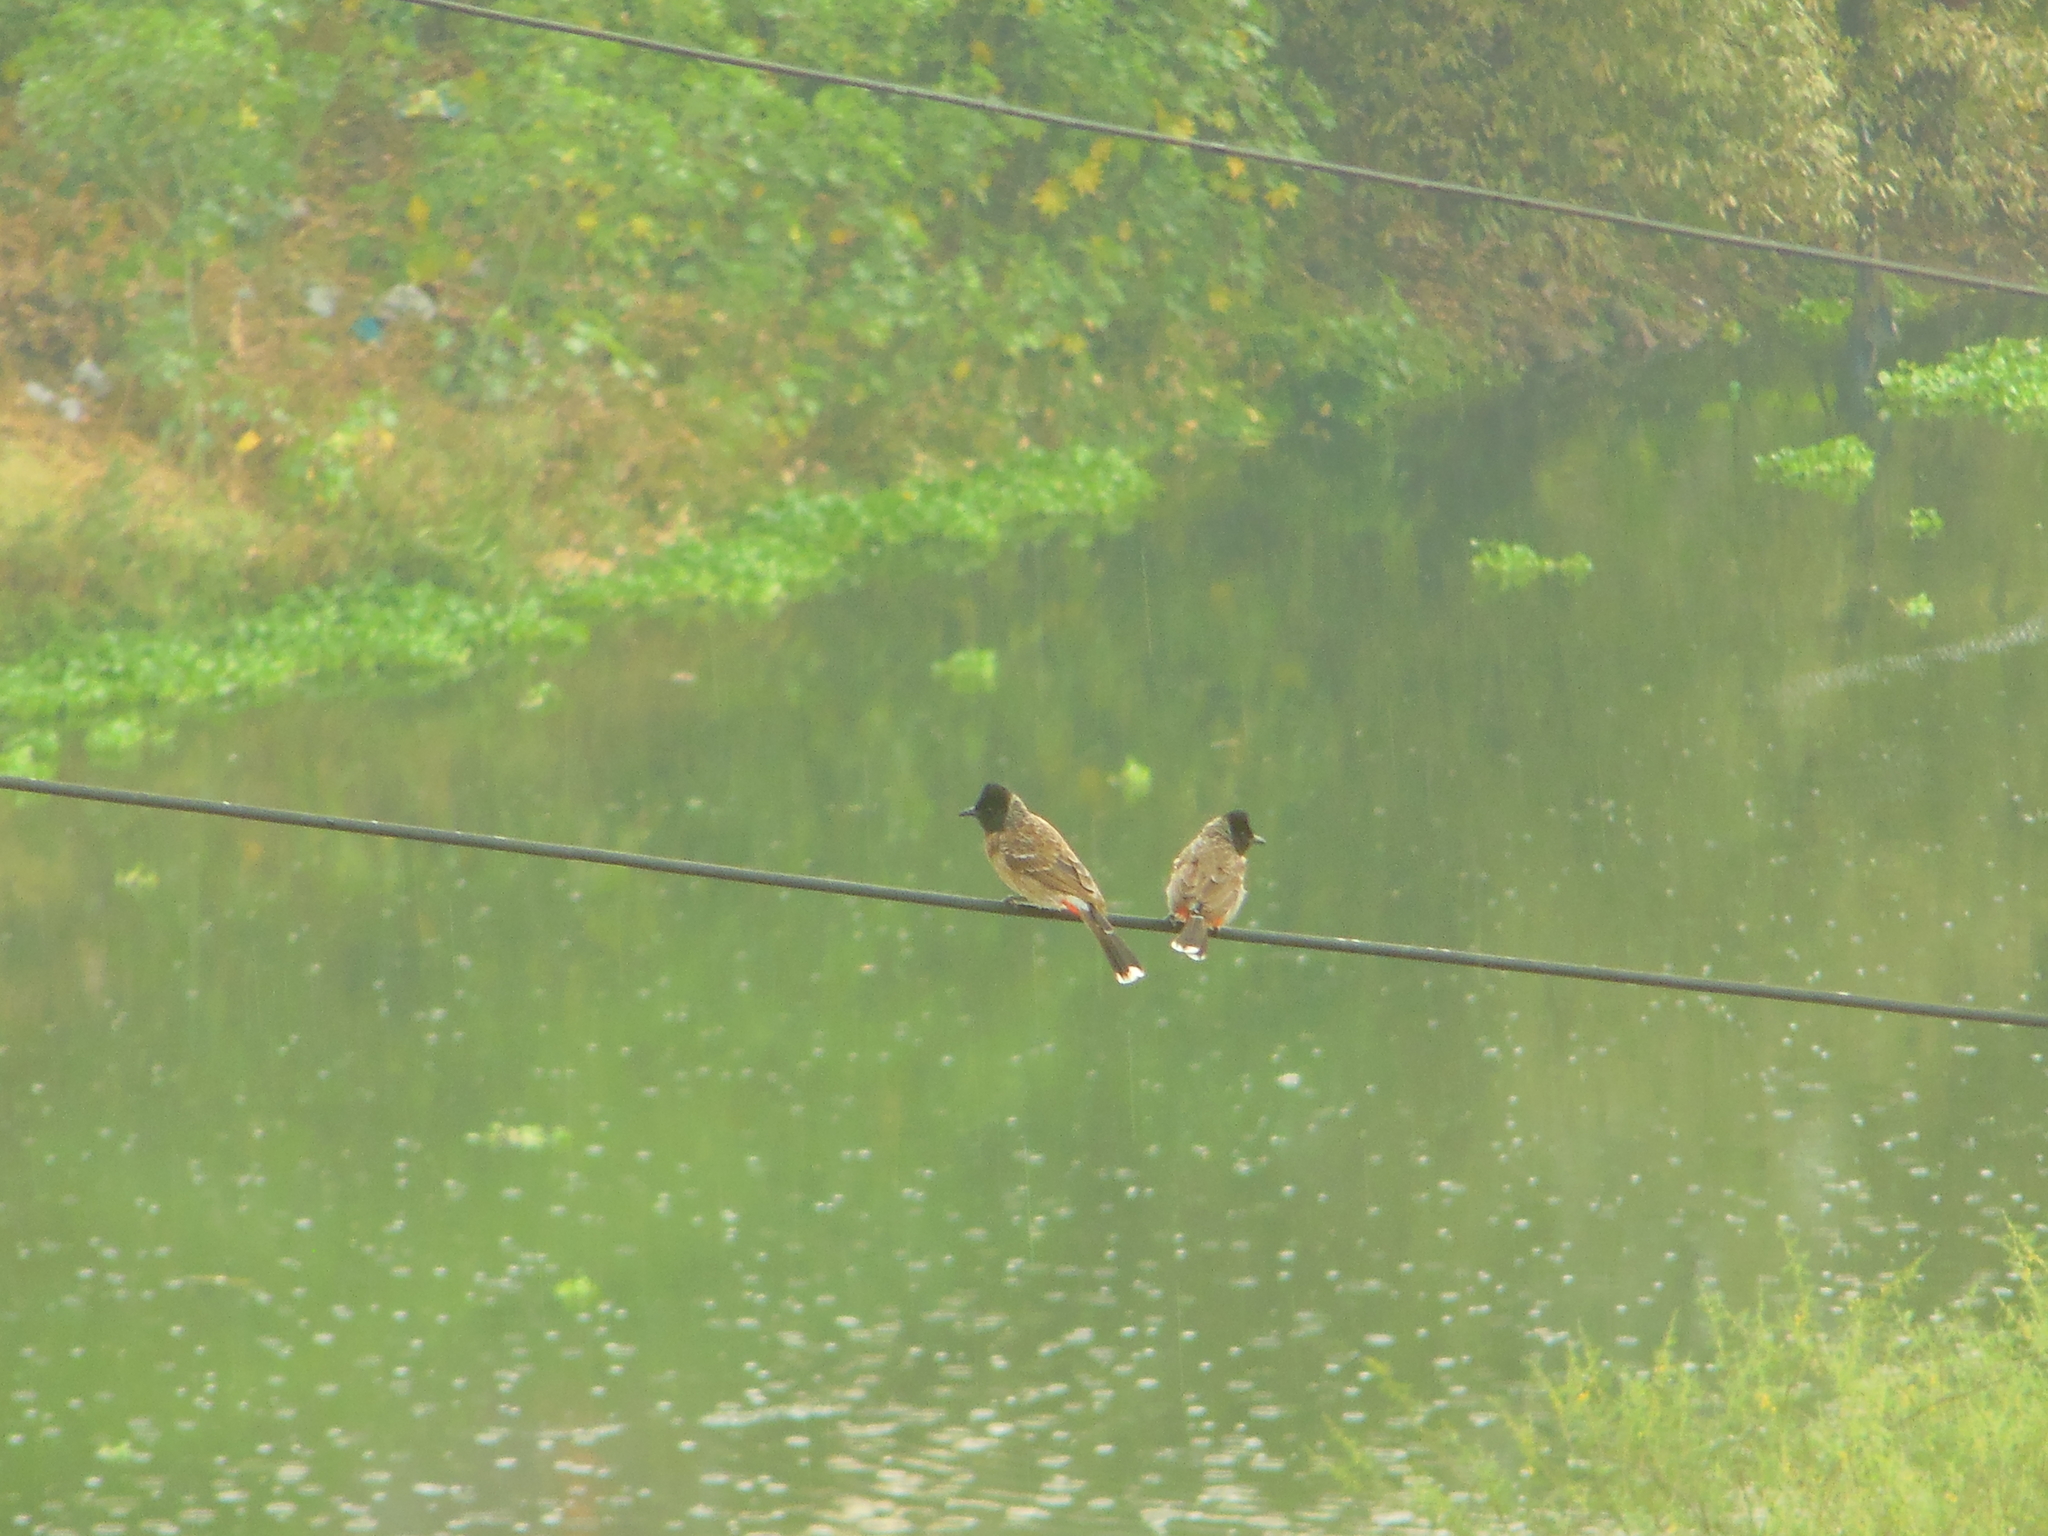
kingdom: Animalia
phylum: Chordata
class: Aves
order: Passeriformes
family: Pycnonotidae
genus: Pycnonotus
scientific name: Pycnonotus cafer
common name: Red-vented bulbul
